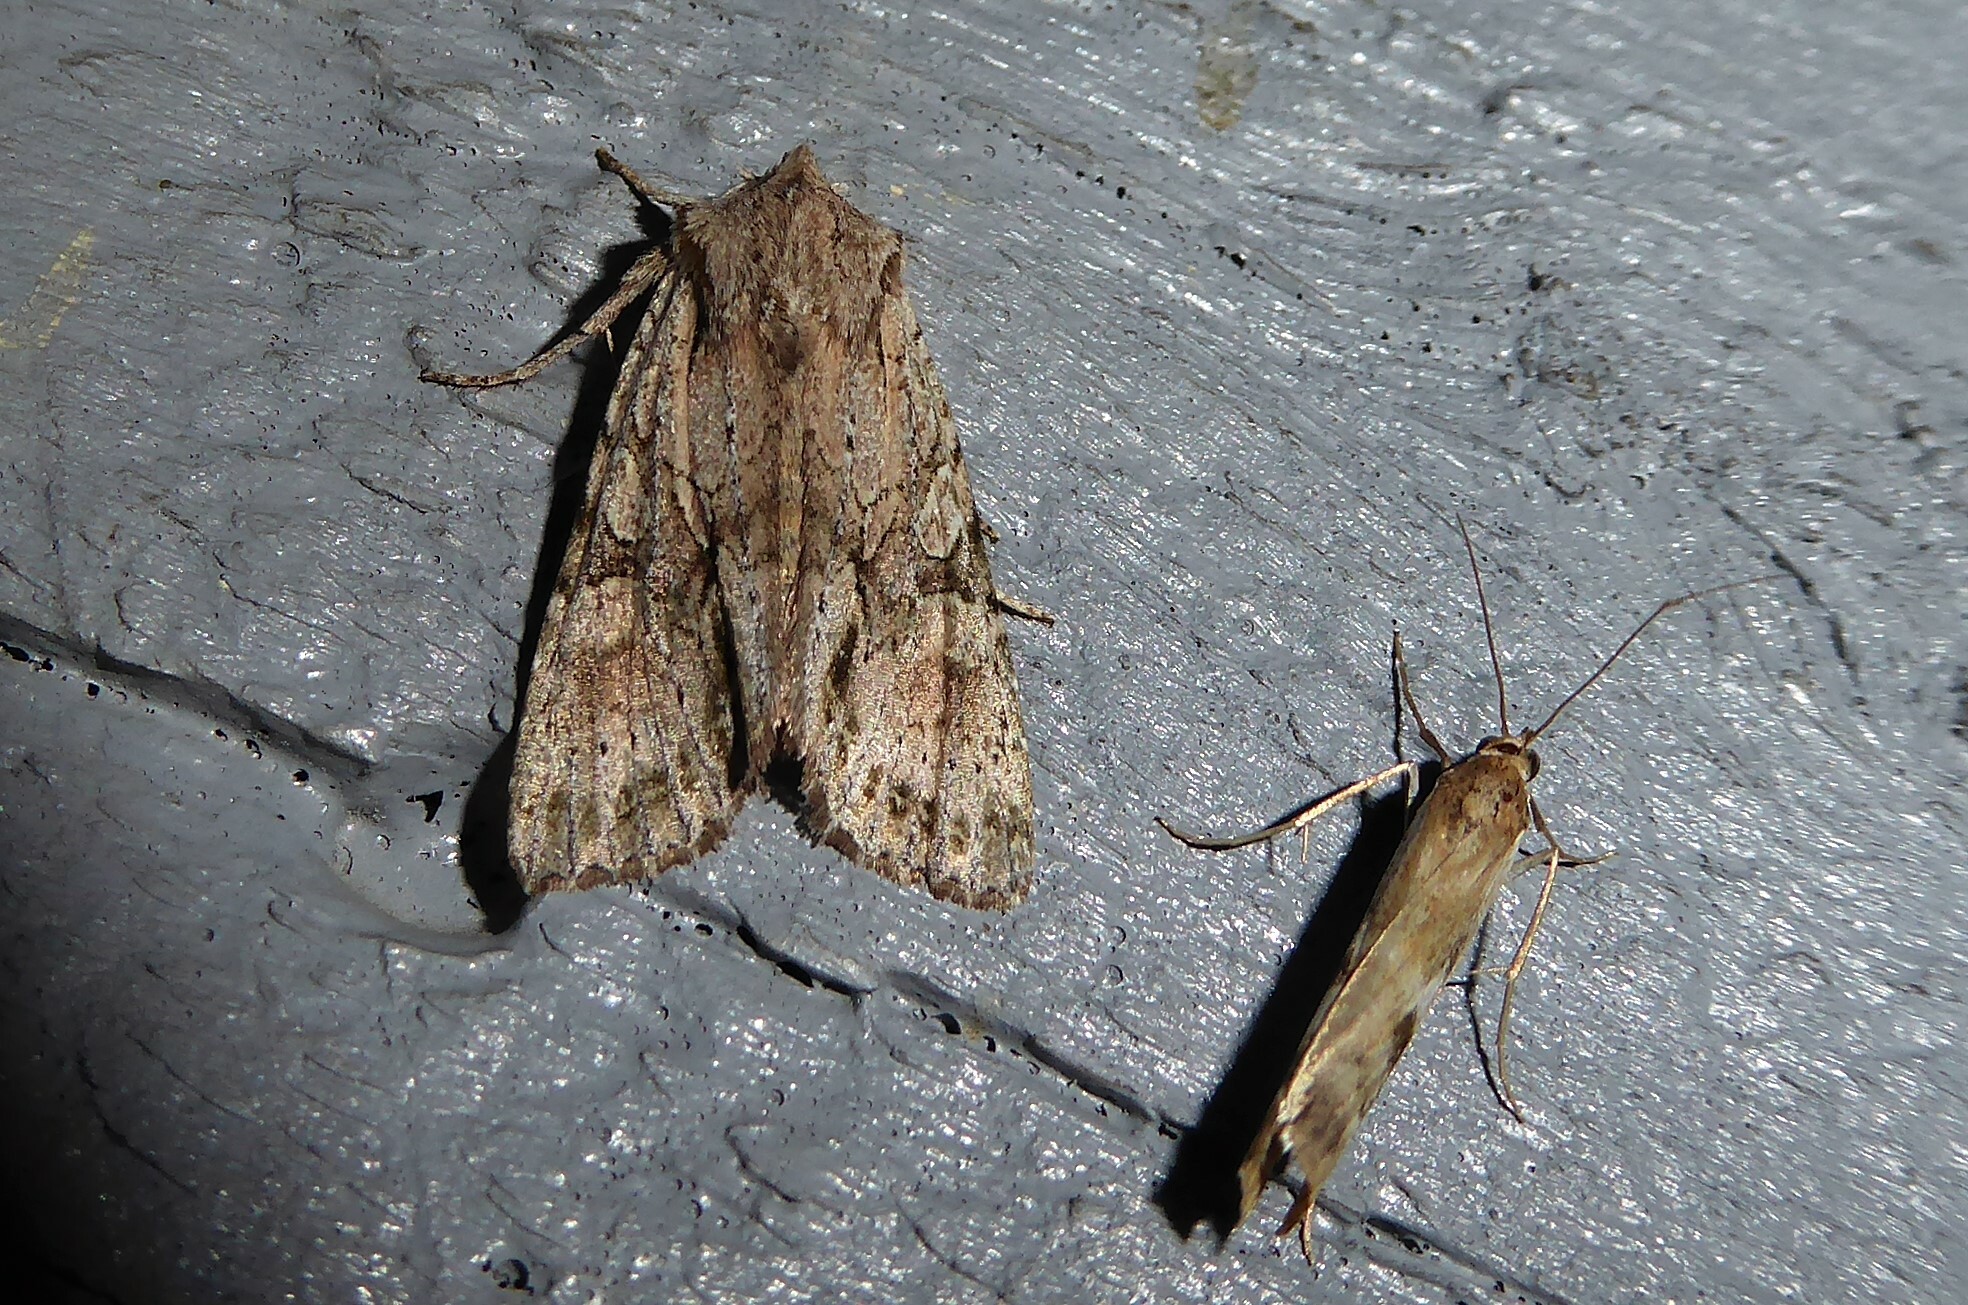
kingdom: Animalia
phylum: Arthropoda
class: Insecta
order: Lepidoptera
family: Noctuidae
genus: Ichneutica
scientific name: Ichneutica
